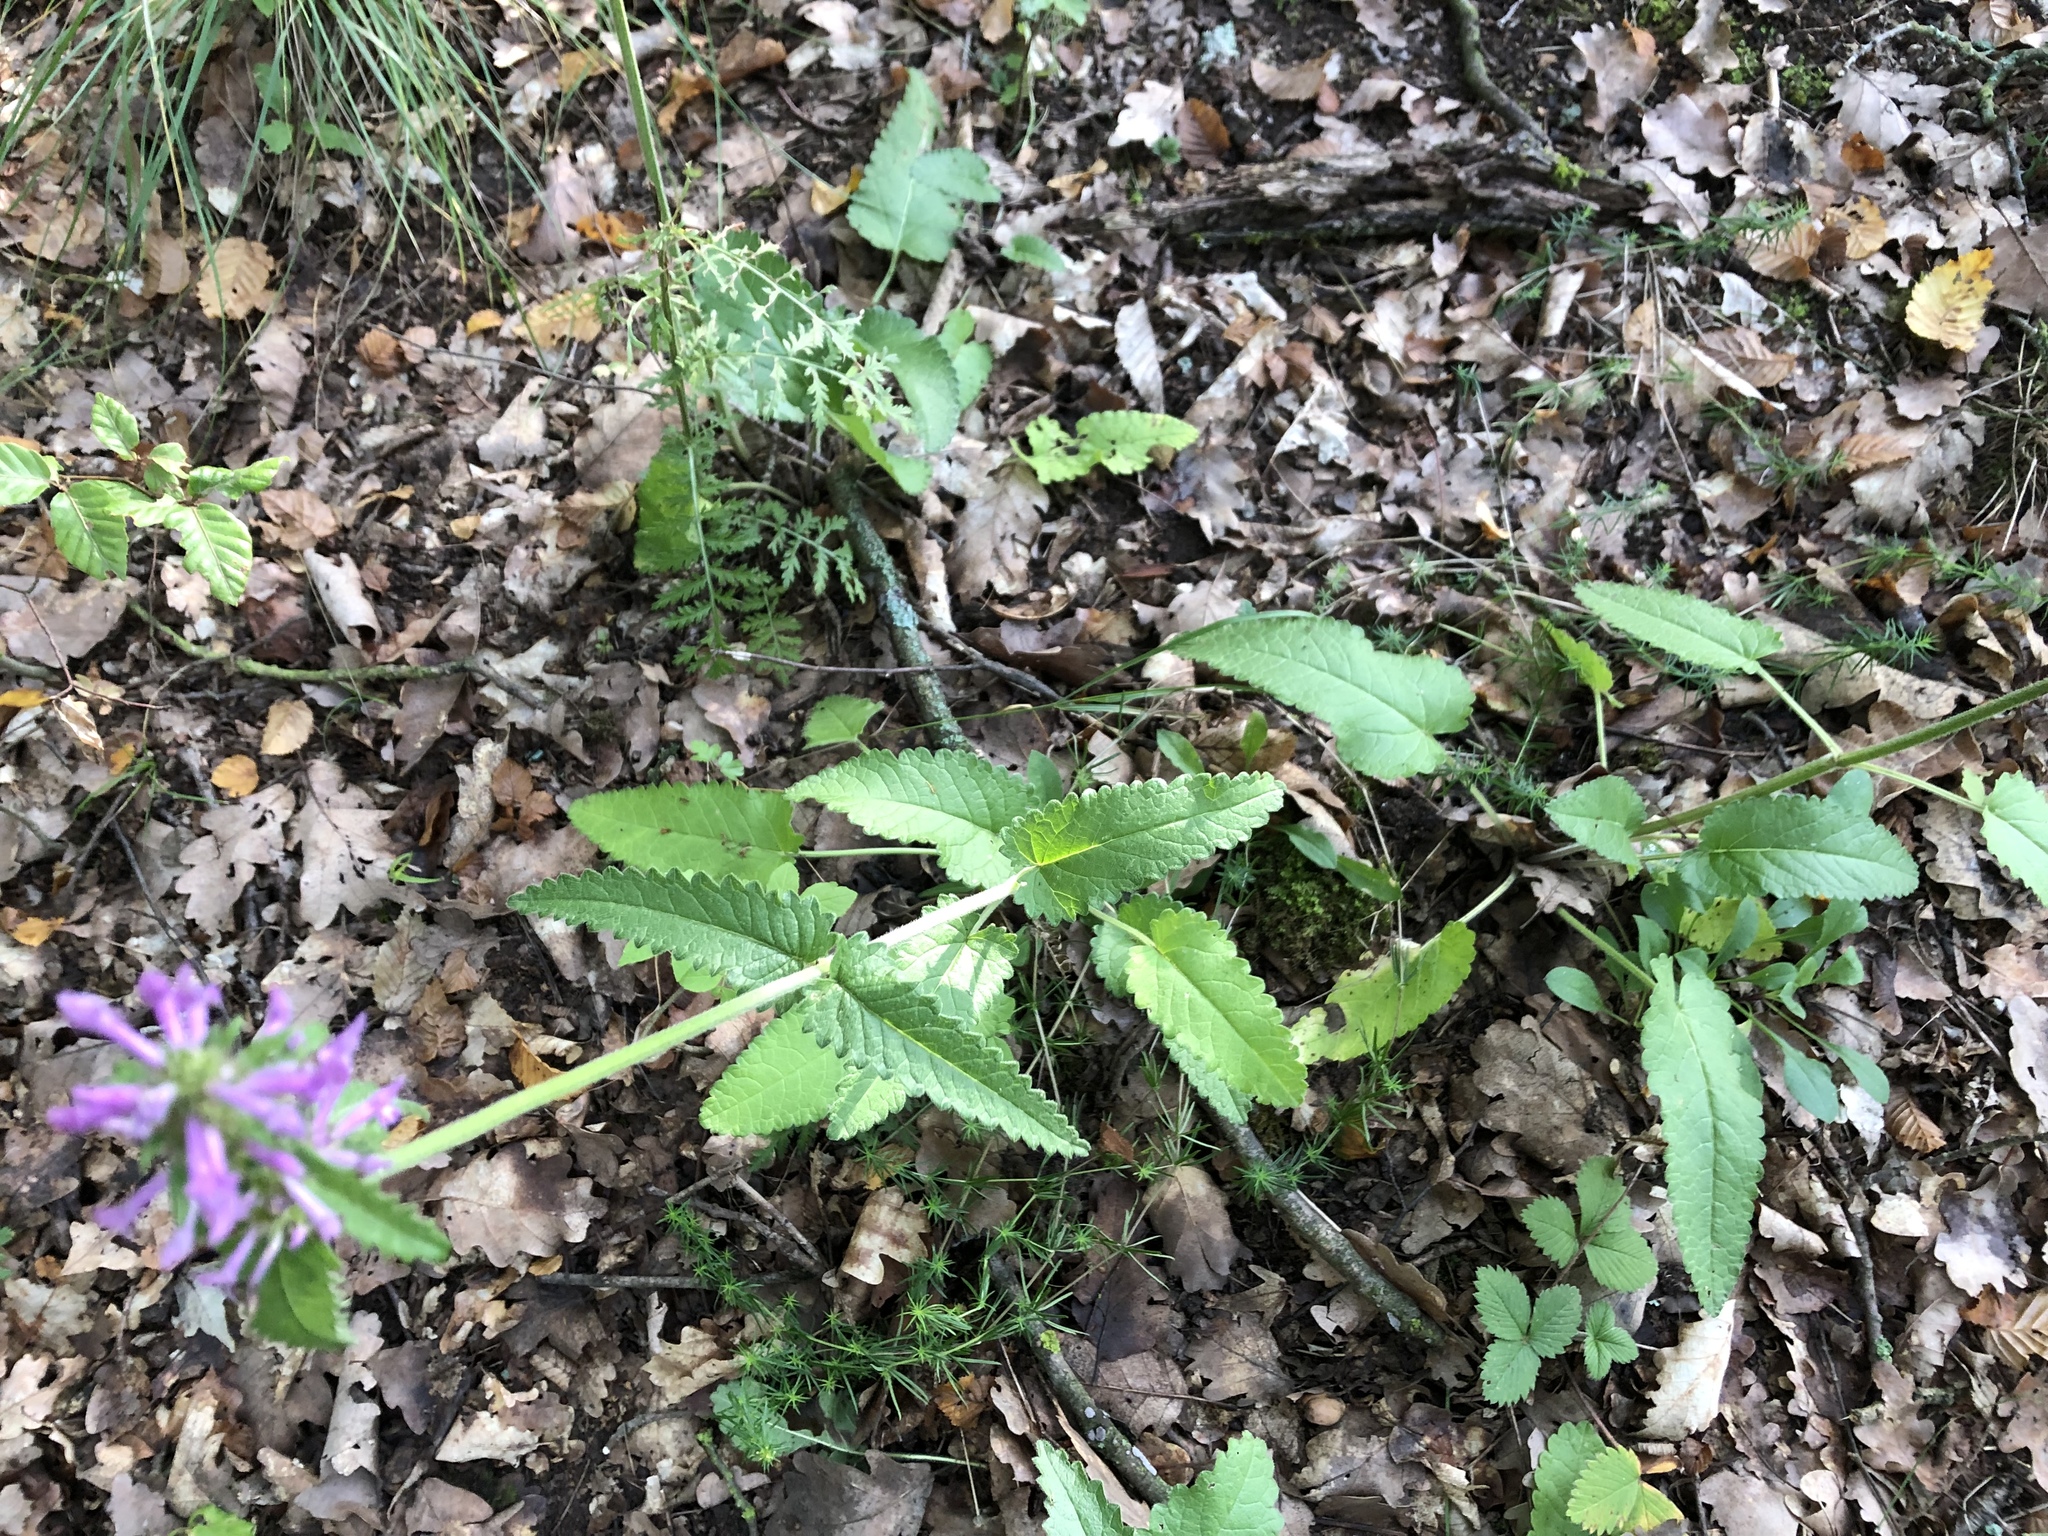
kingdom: Plantae
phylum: Tracheophyta
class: Magnoliopsida
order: Lamiales
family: Lamiaceae
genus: Betonica
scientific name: Betonica officinalis
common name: Bishop's-wort
